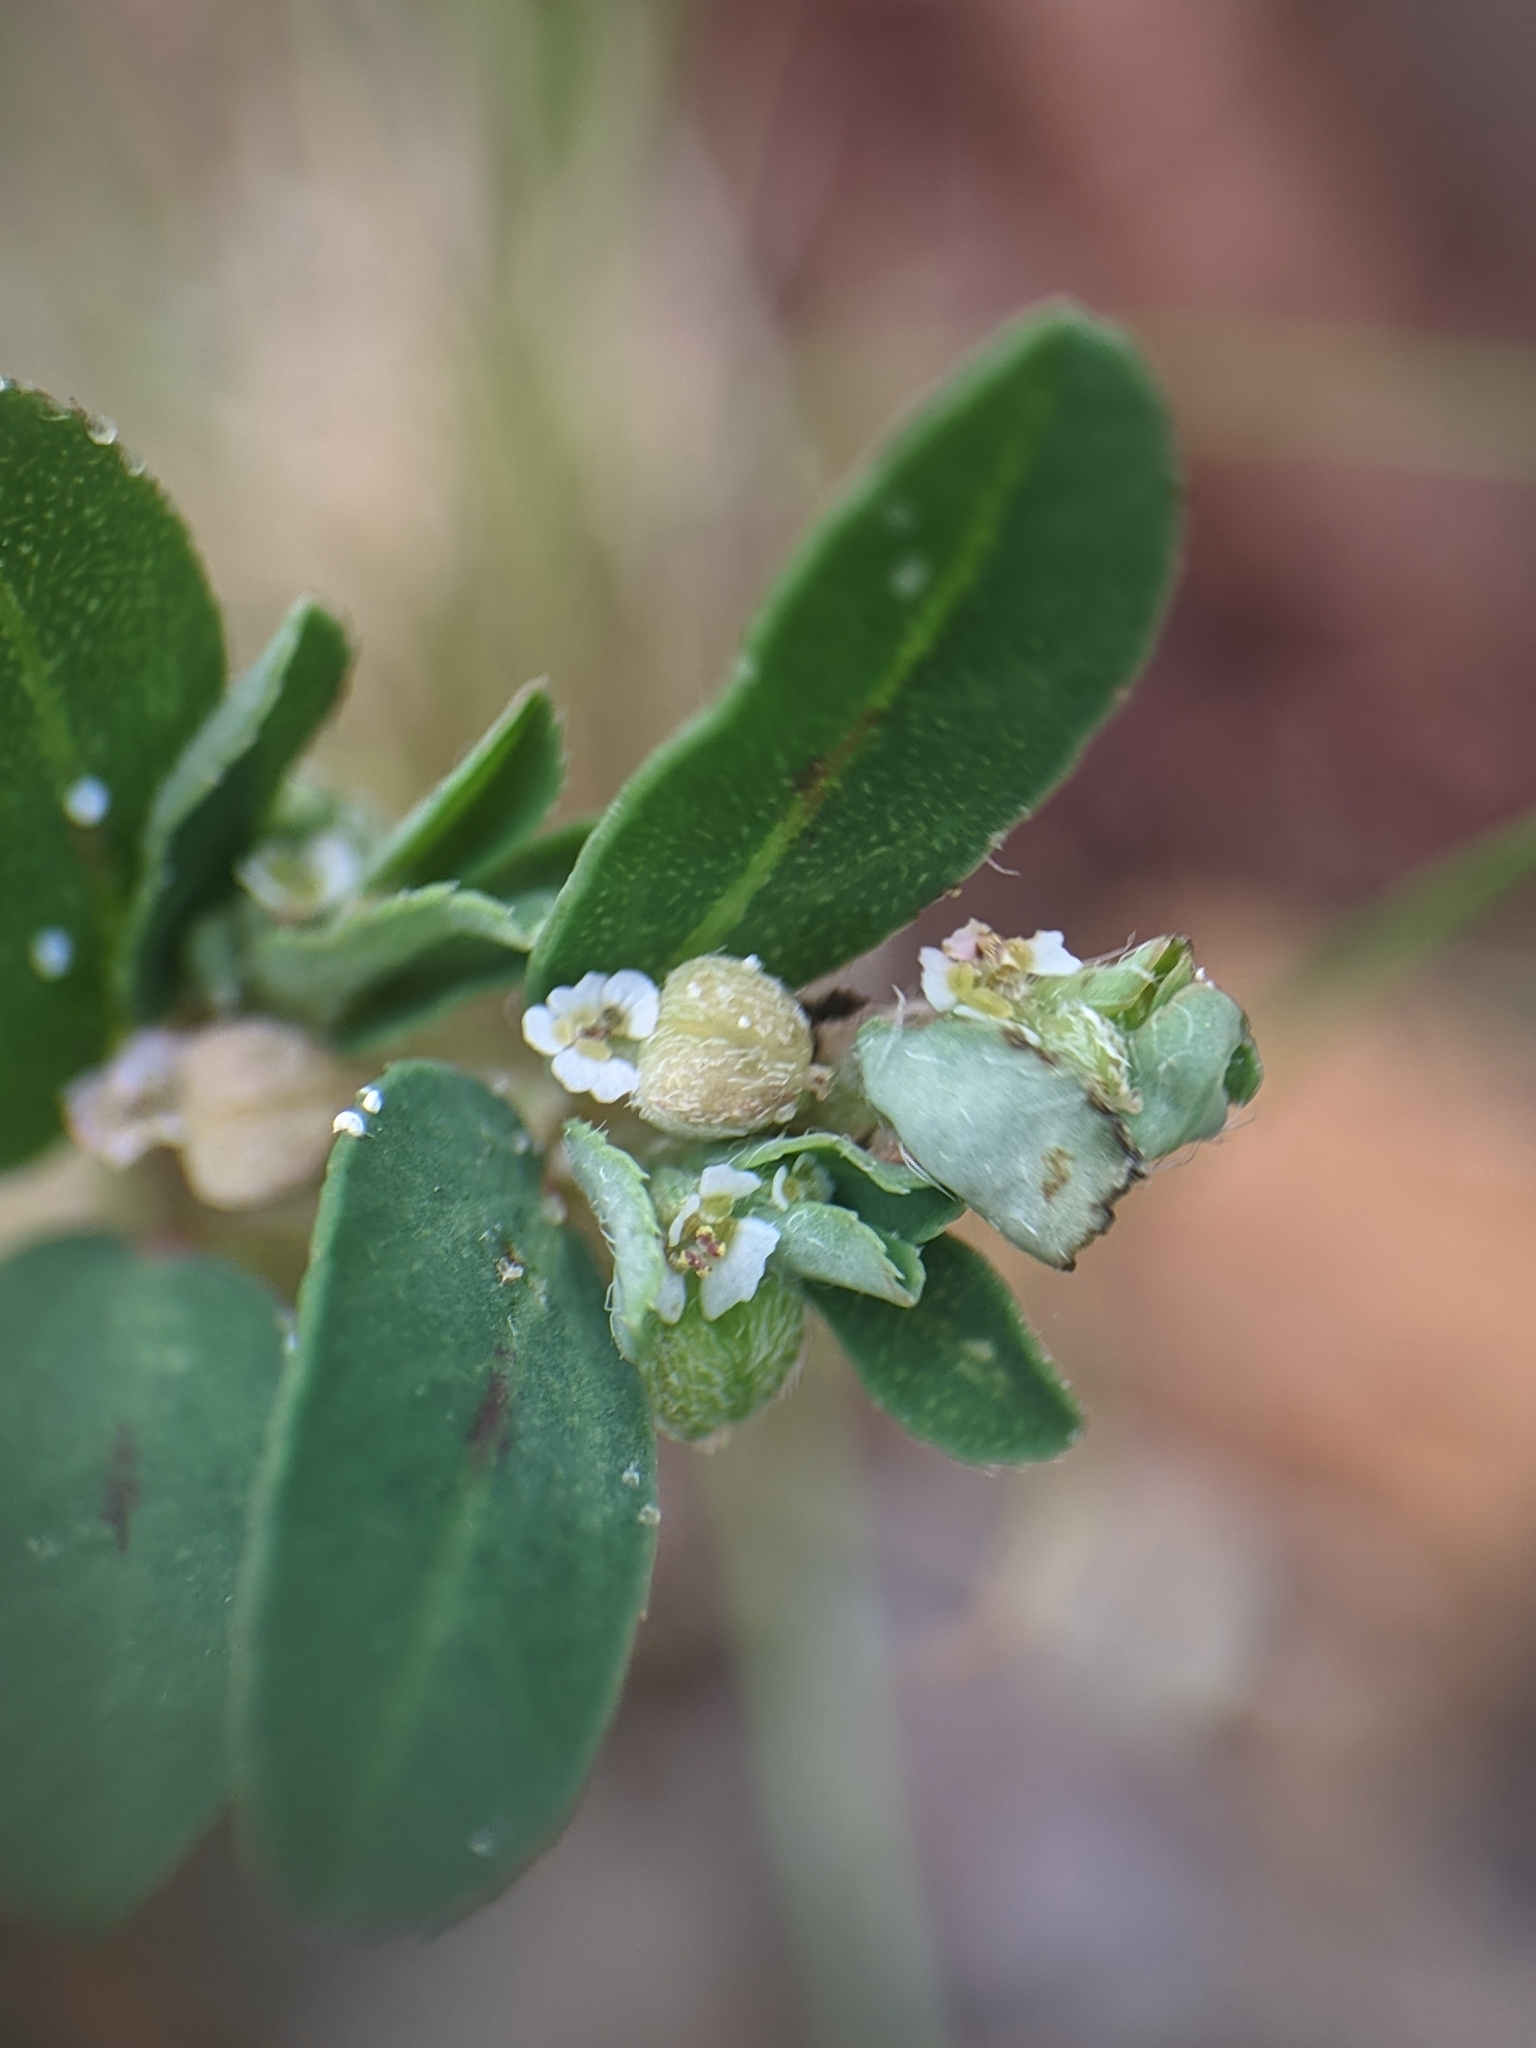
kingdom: Plantae
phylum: Tracheophyta
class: Magnoliopsida
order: Malpighiales
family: Euphorbiaceae
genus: Euphorbia
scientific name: Euphorbia maculata
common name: Spotted spurge
